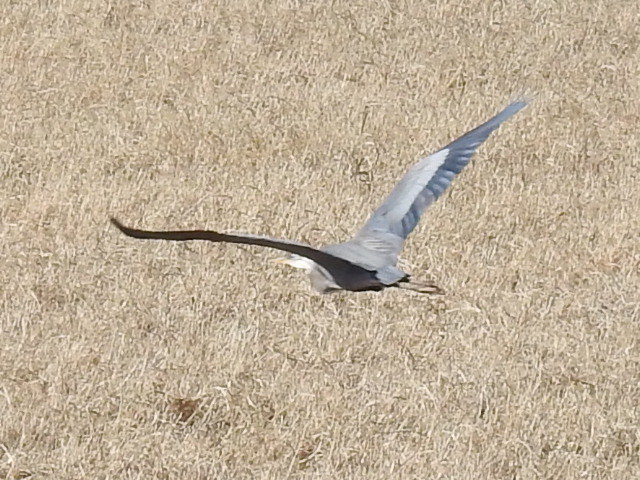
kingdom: Animalia
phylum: Chordata
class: Aves
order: Pelecaniformes
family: Ardeidae
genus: Ardea
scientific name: Ardea herodias
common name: Great blue heron
